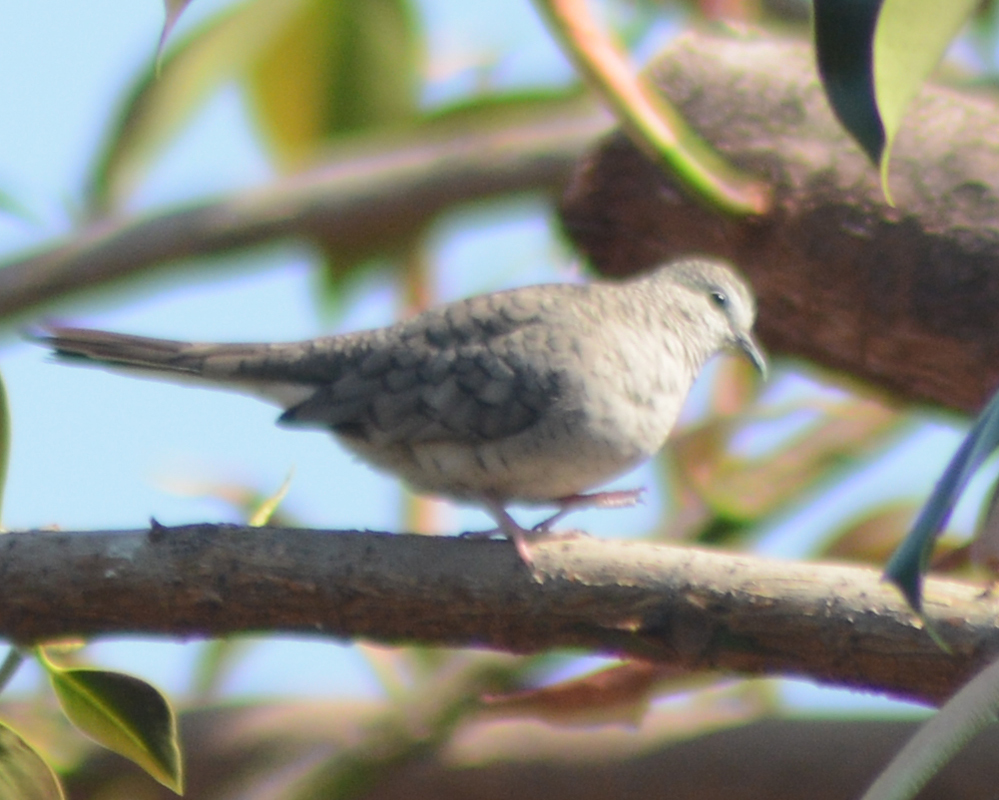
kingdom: Animalia
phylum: Chordata
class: Aves
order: Columbiformes
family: Columbidae
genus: Columbina
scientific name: Columbina inca
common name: Inca dove
